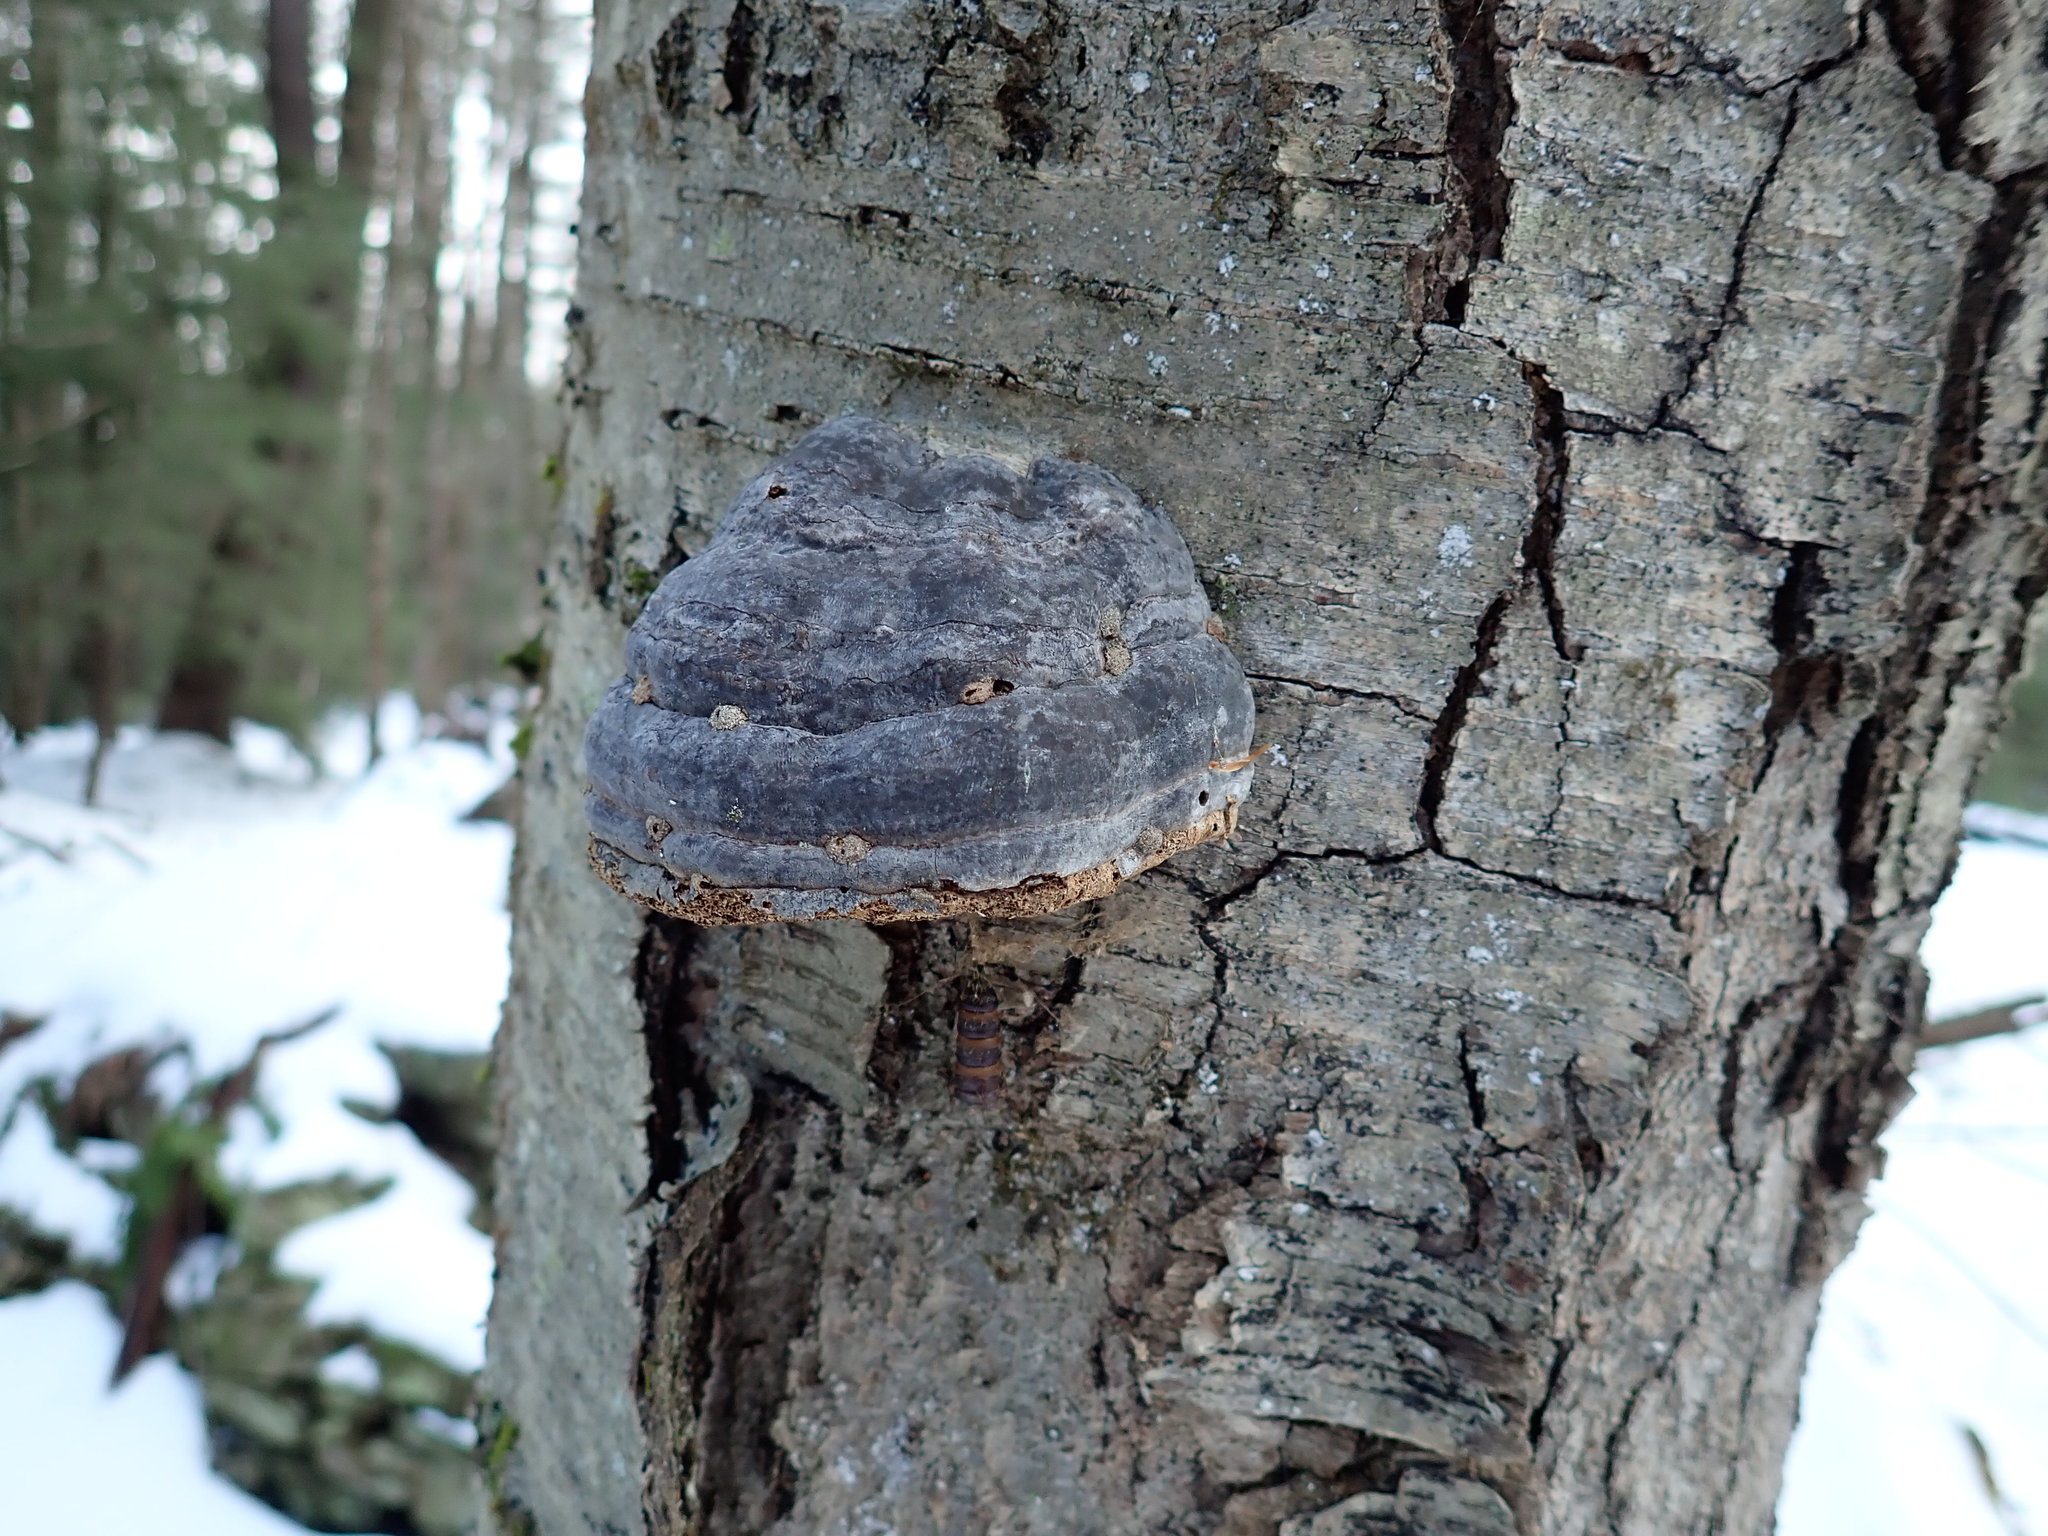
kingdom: Fungi
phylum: Basidiomycota
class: Agaricomycetes
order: Polyporales
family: Polyporaceae
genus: Fomes
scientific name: Fomes fomentarius
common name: Hoof fungus
